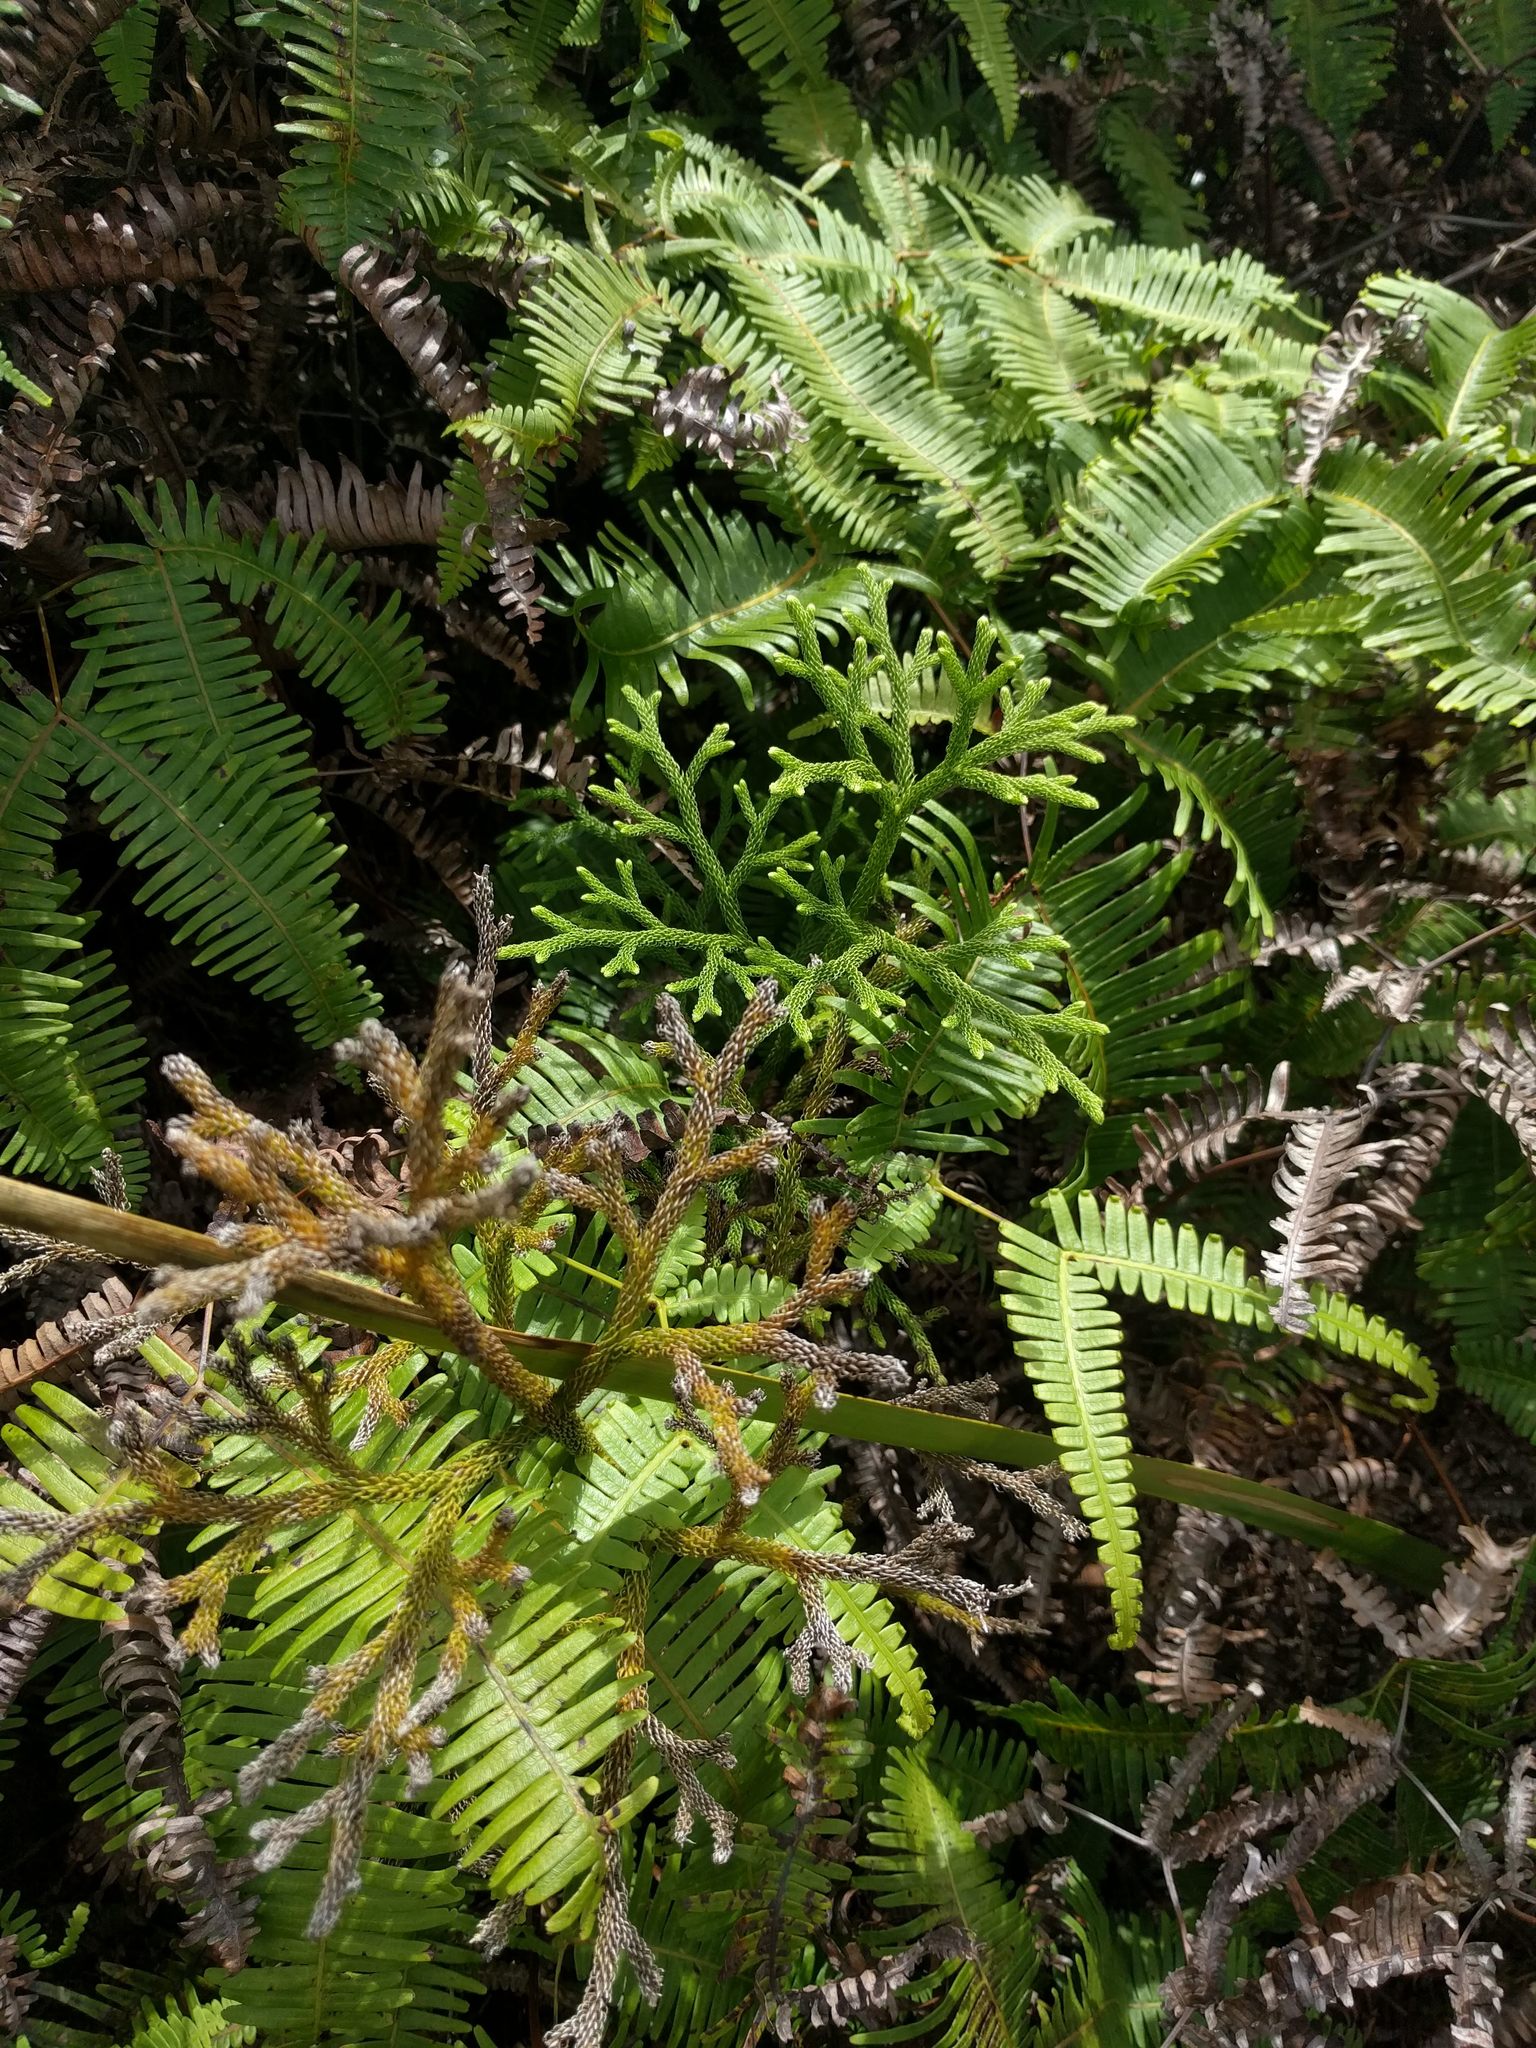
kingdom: Plantae
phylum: Tracheophyta
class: Lycopodiopsida
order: Lycopodiales
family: Lycopodiaceae
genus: Palhinhaea
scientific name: Palhinhaea cernua
